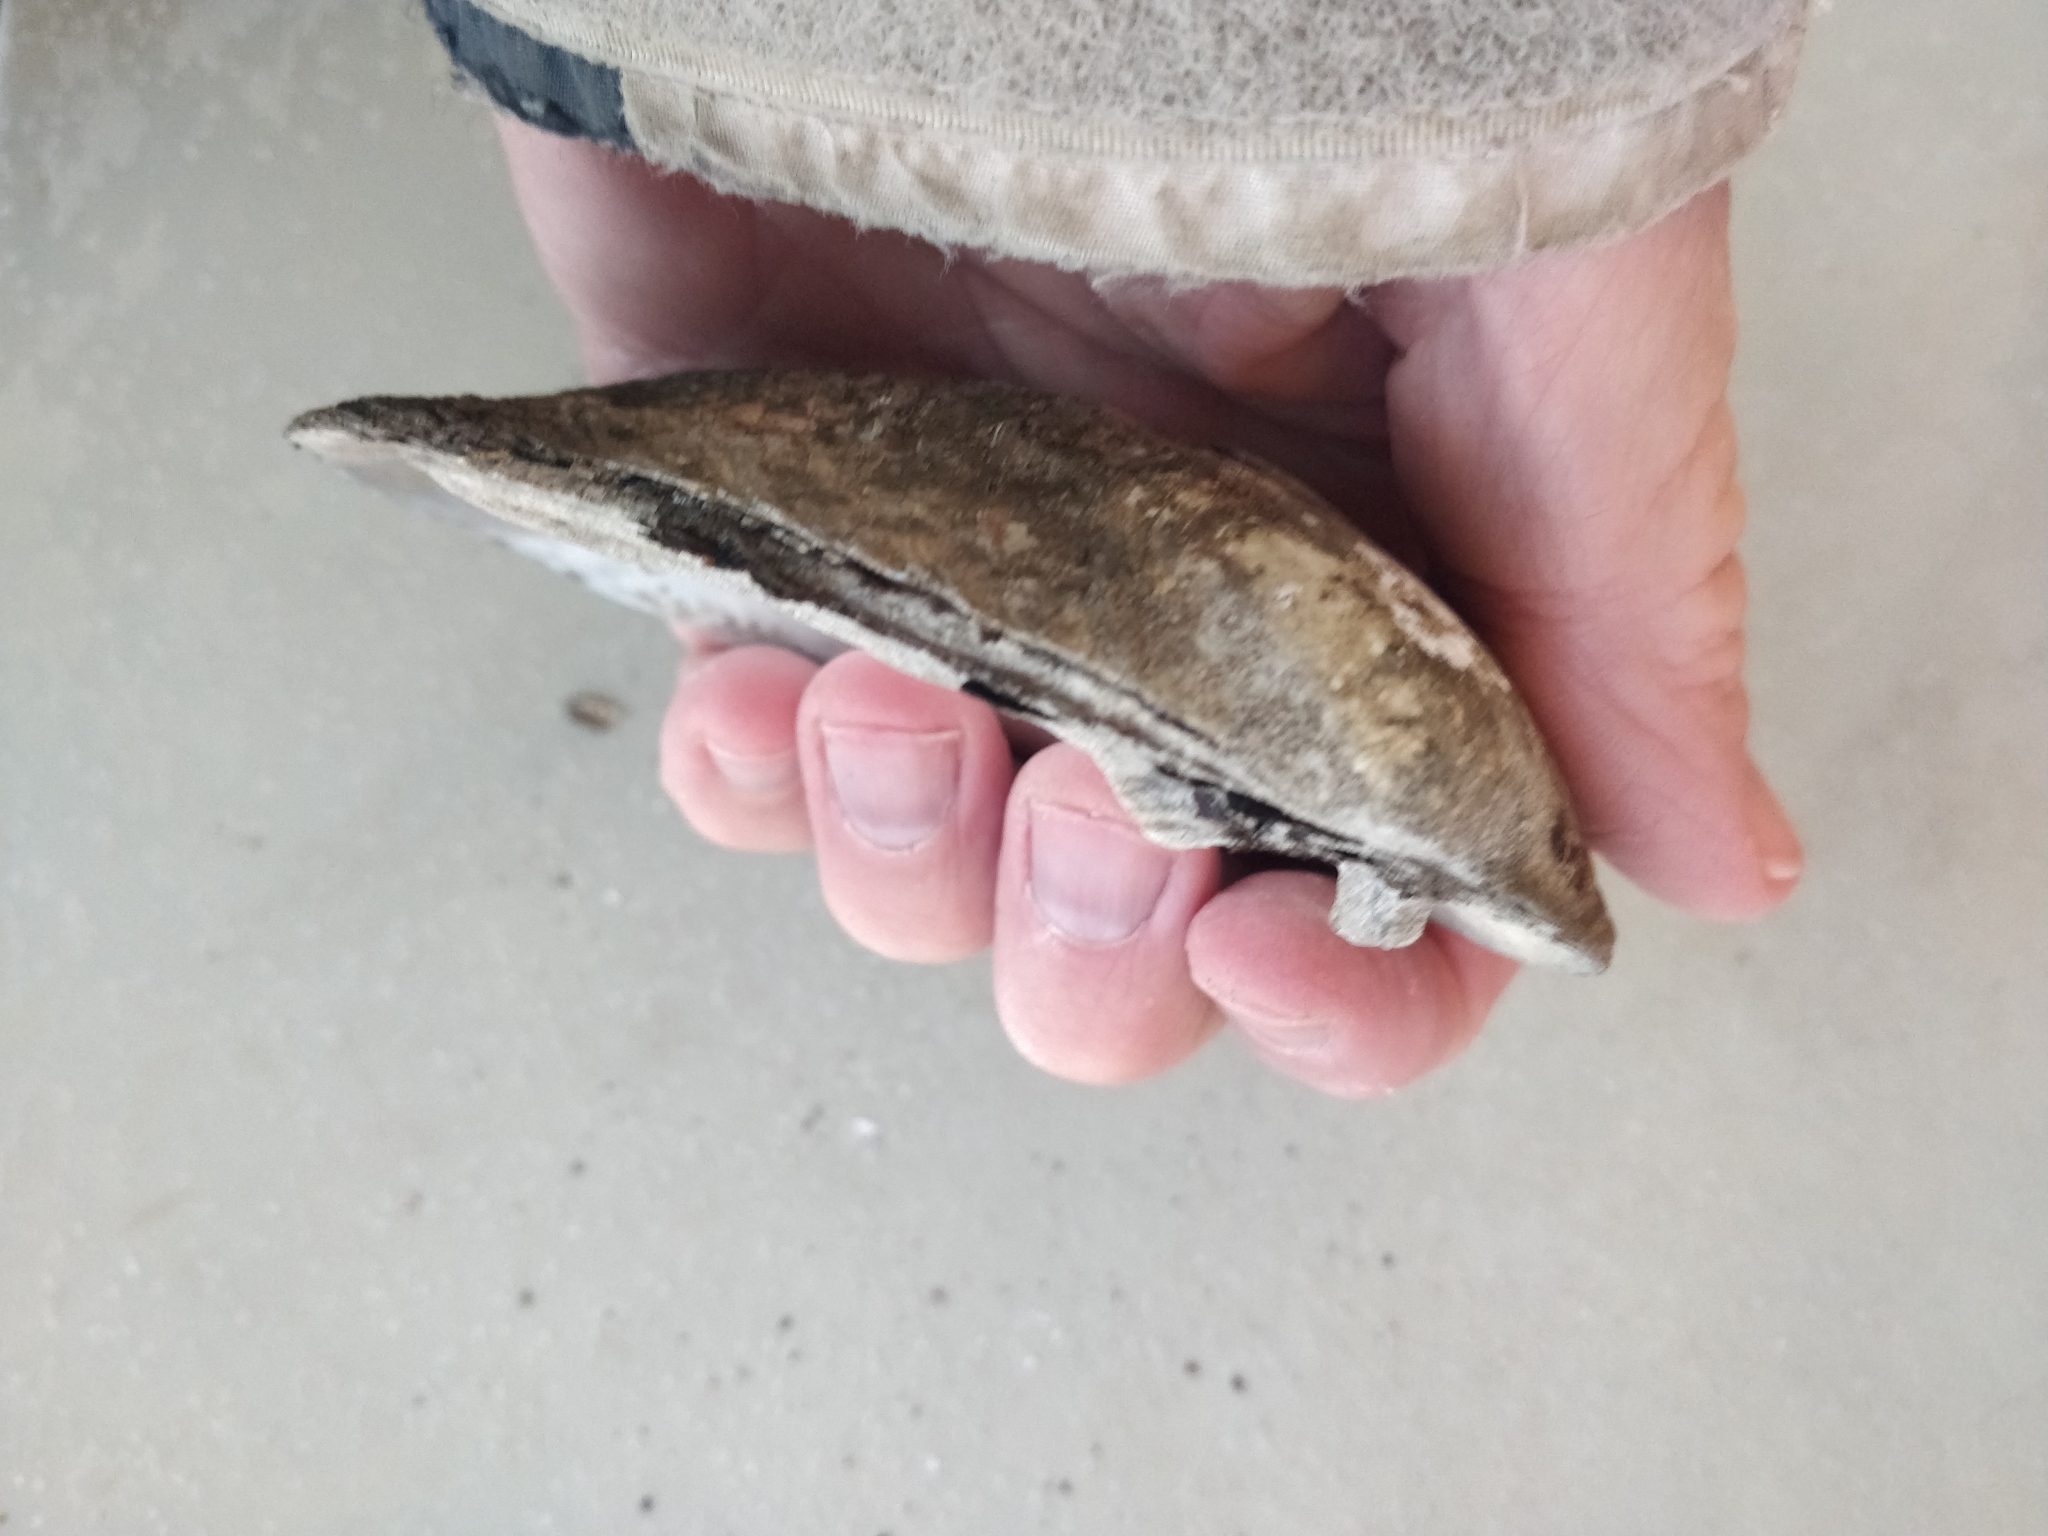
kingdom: Animalia
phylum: Mollusca
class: Bivalvia
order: Unionida
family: Unionidae
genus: Amblema
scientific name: Amblema plicata
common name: Threeridge
